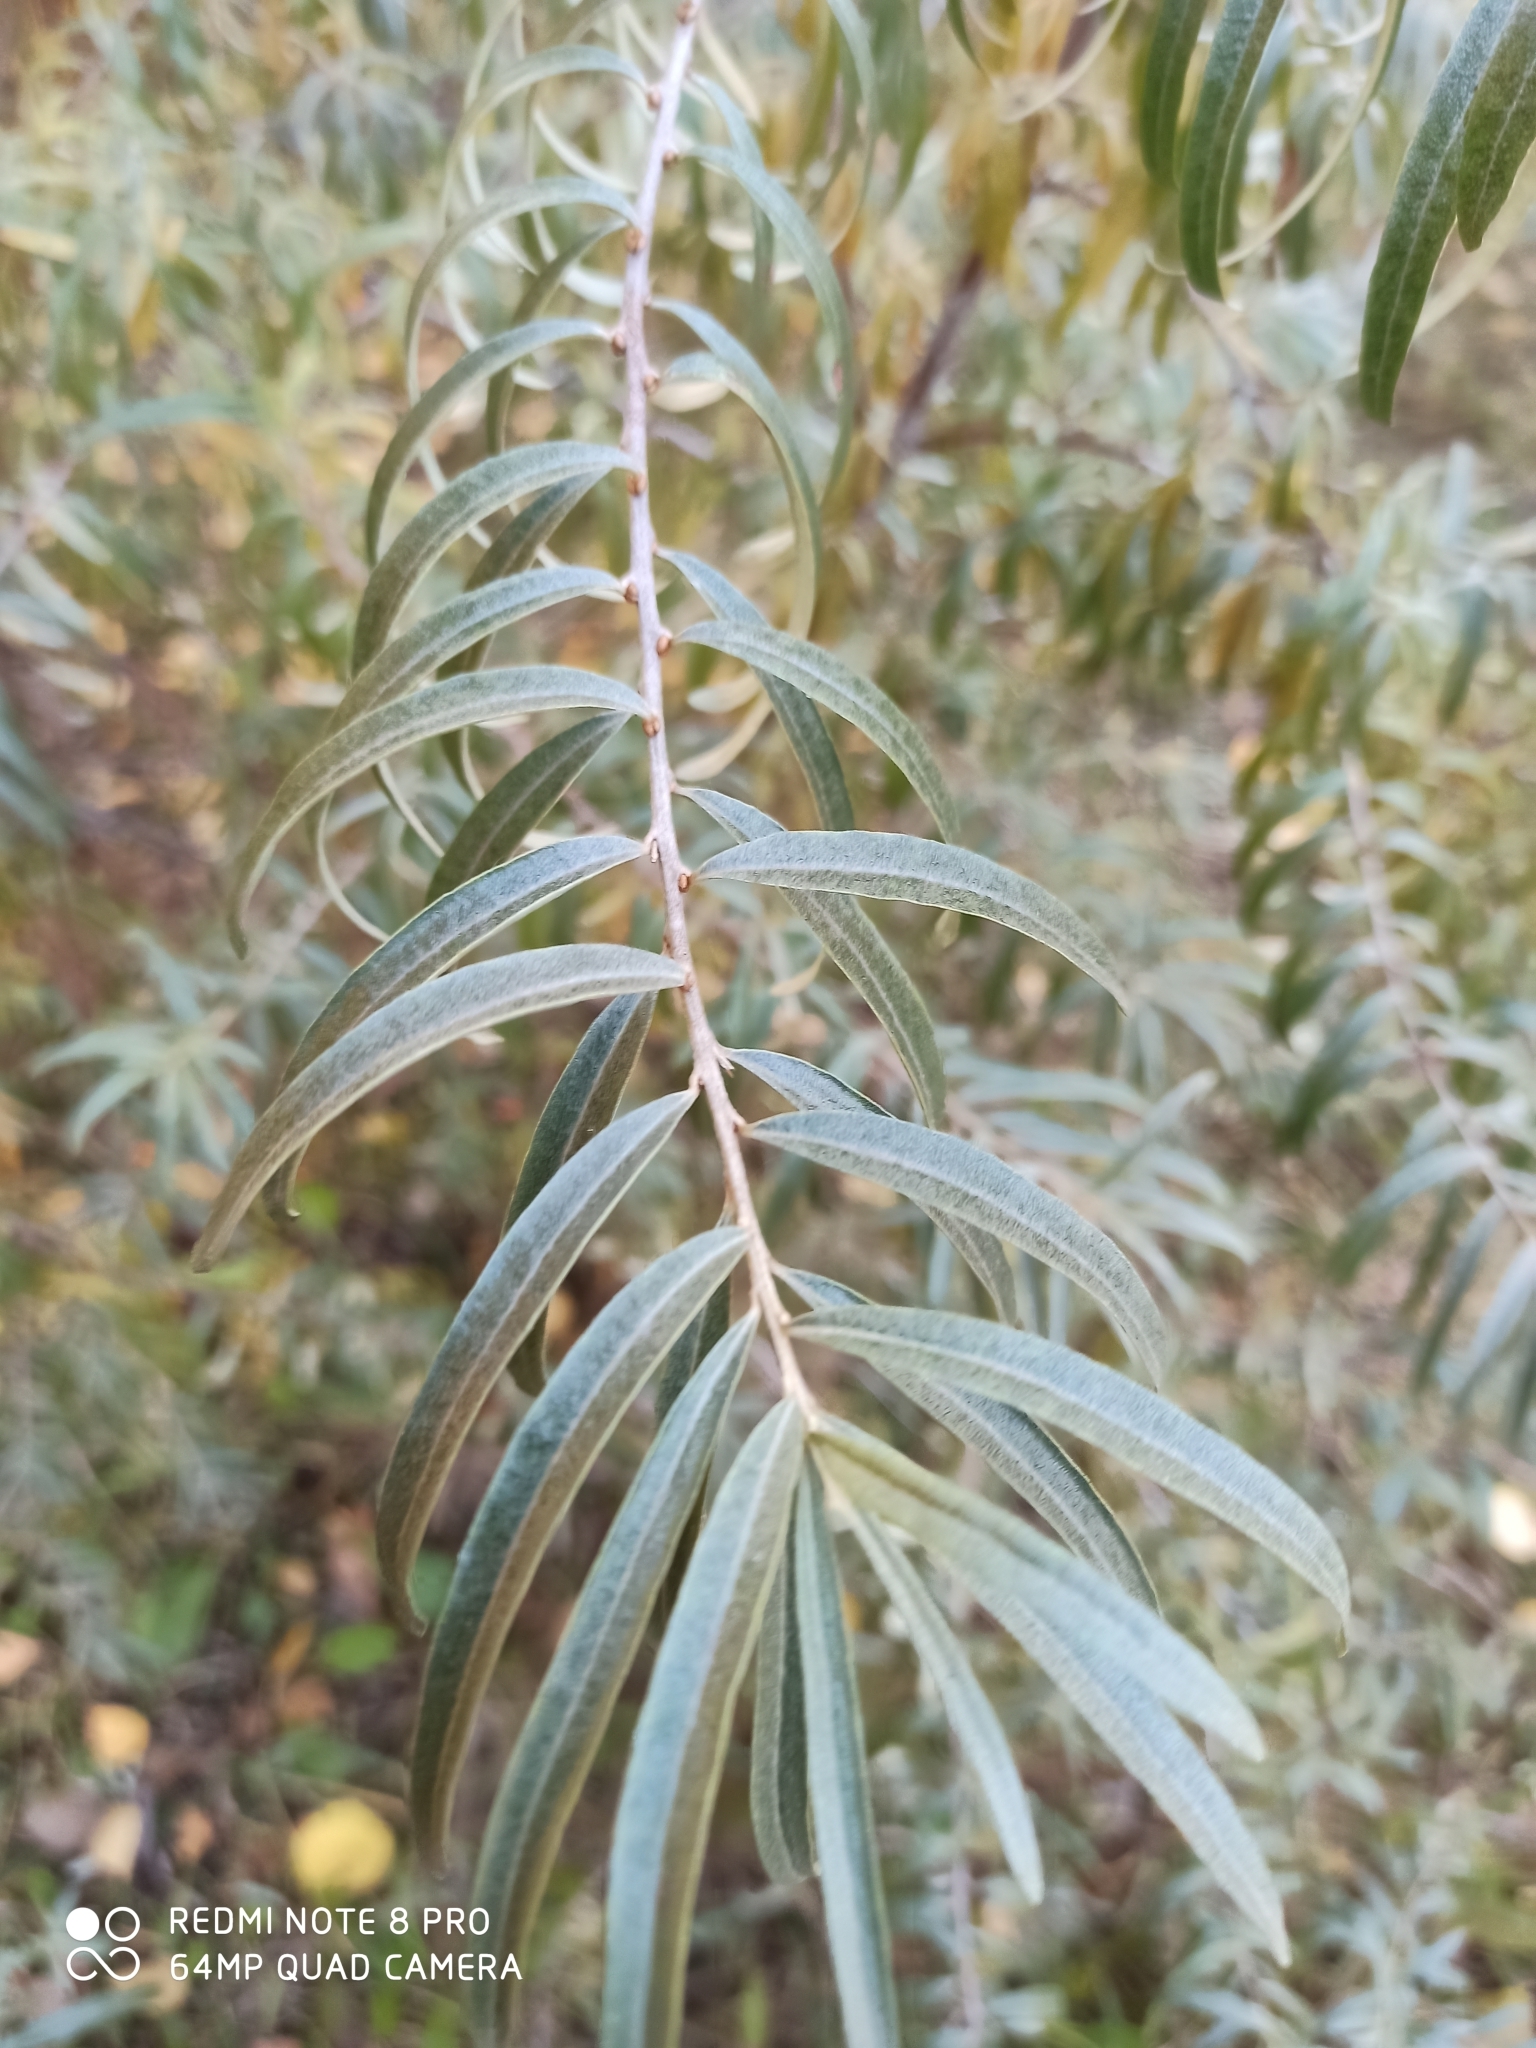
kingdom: Plantae
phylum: Tracheophyta
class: Magnoliopsida
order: Rosales
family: Elaeagnaceae
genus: Hippophae
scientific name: Hippophae rhamnoides
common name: Sea-buckthorn
